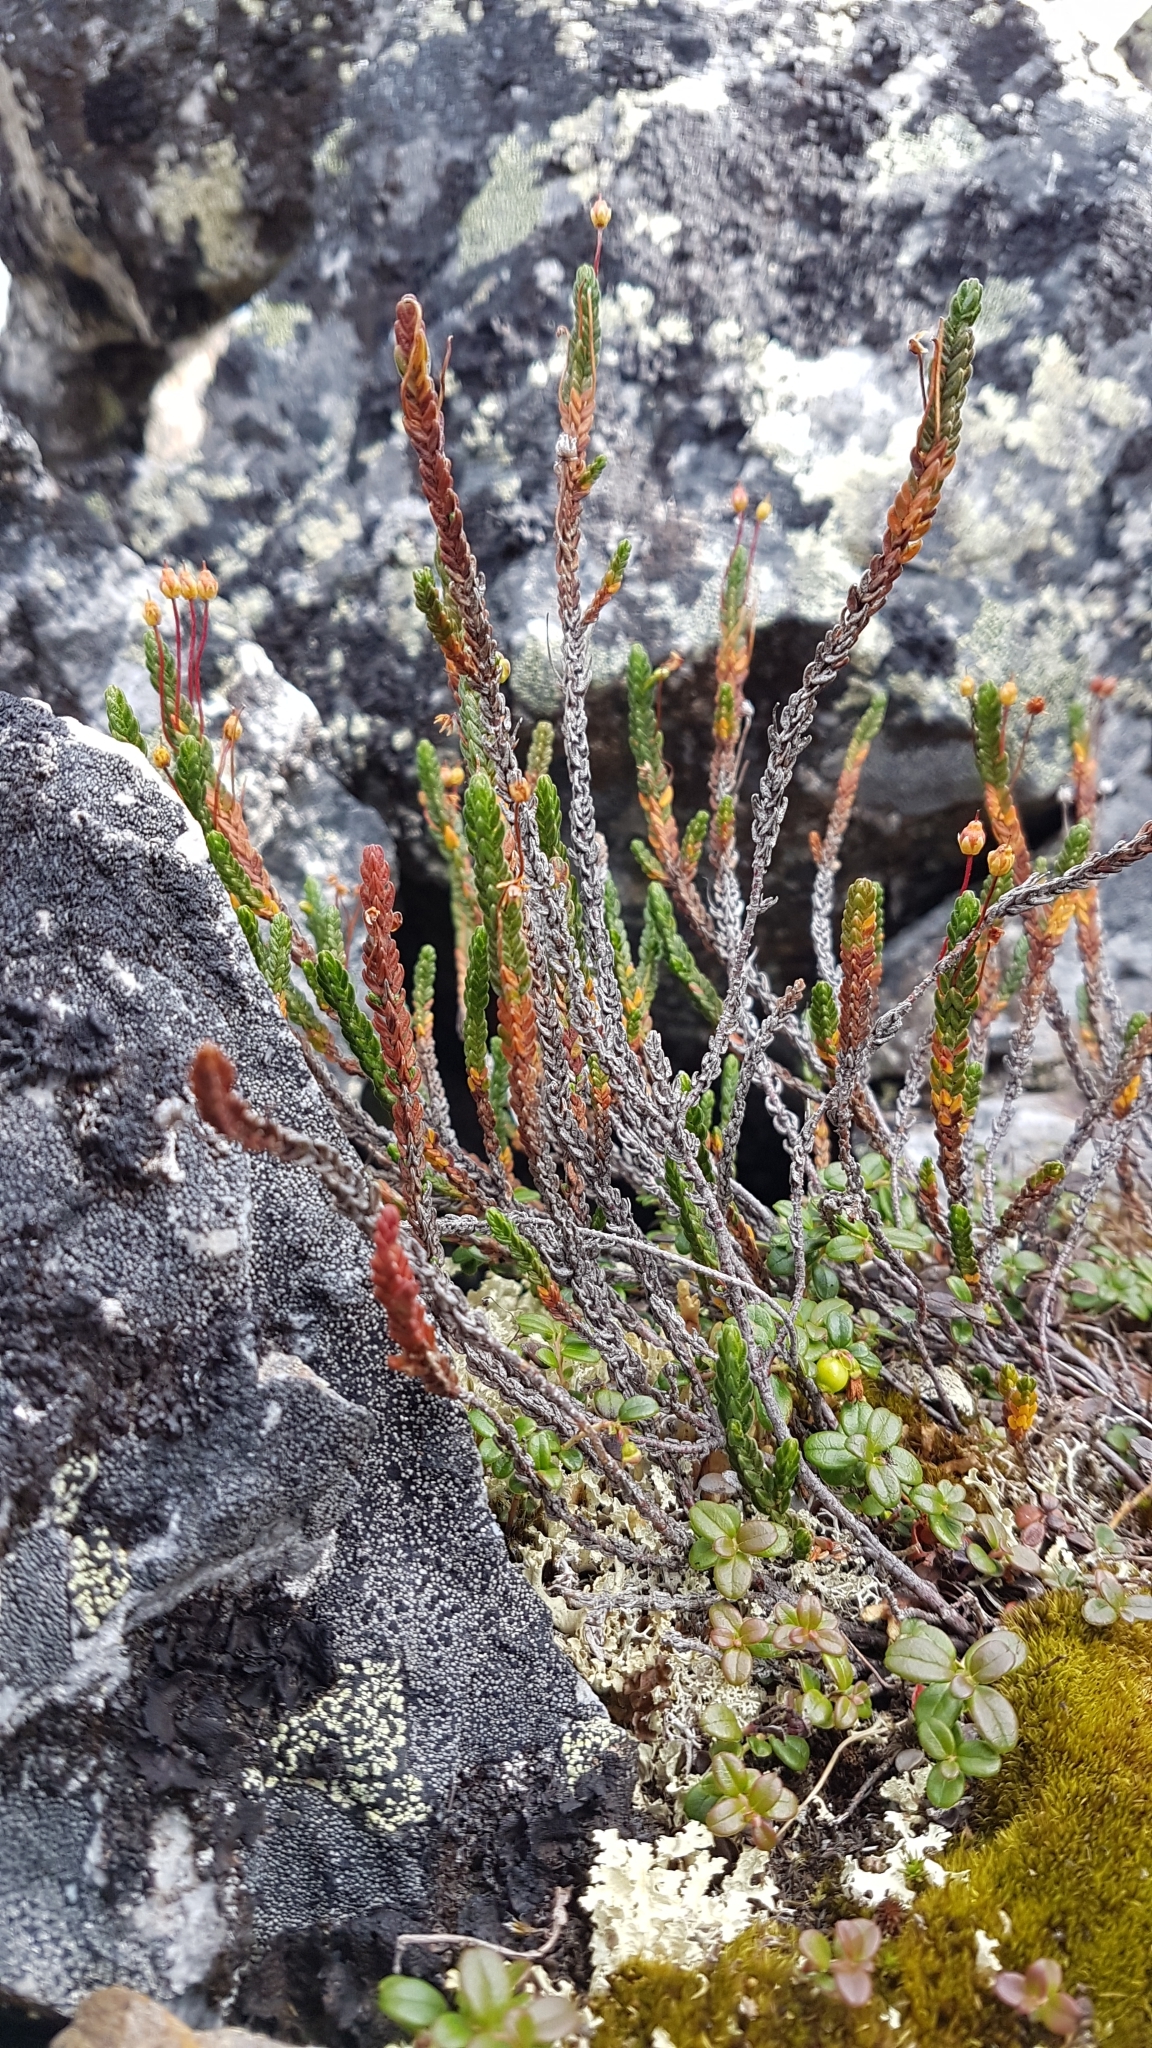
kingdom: Plantae
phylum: Tracheophyta
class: Magnoliopsida
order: Ericales
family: Ericaceae
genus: Cassiope
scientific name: Cassiope tetragona
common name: Arctic bell heather
